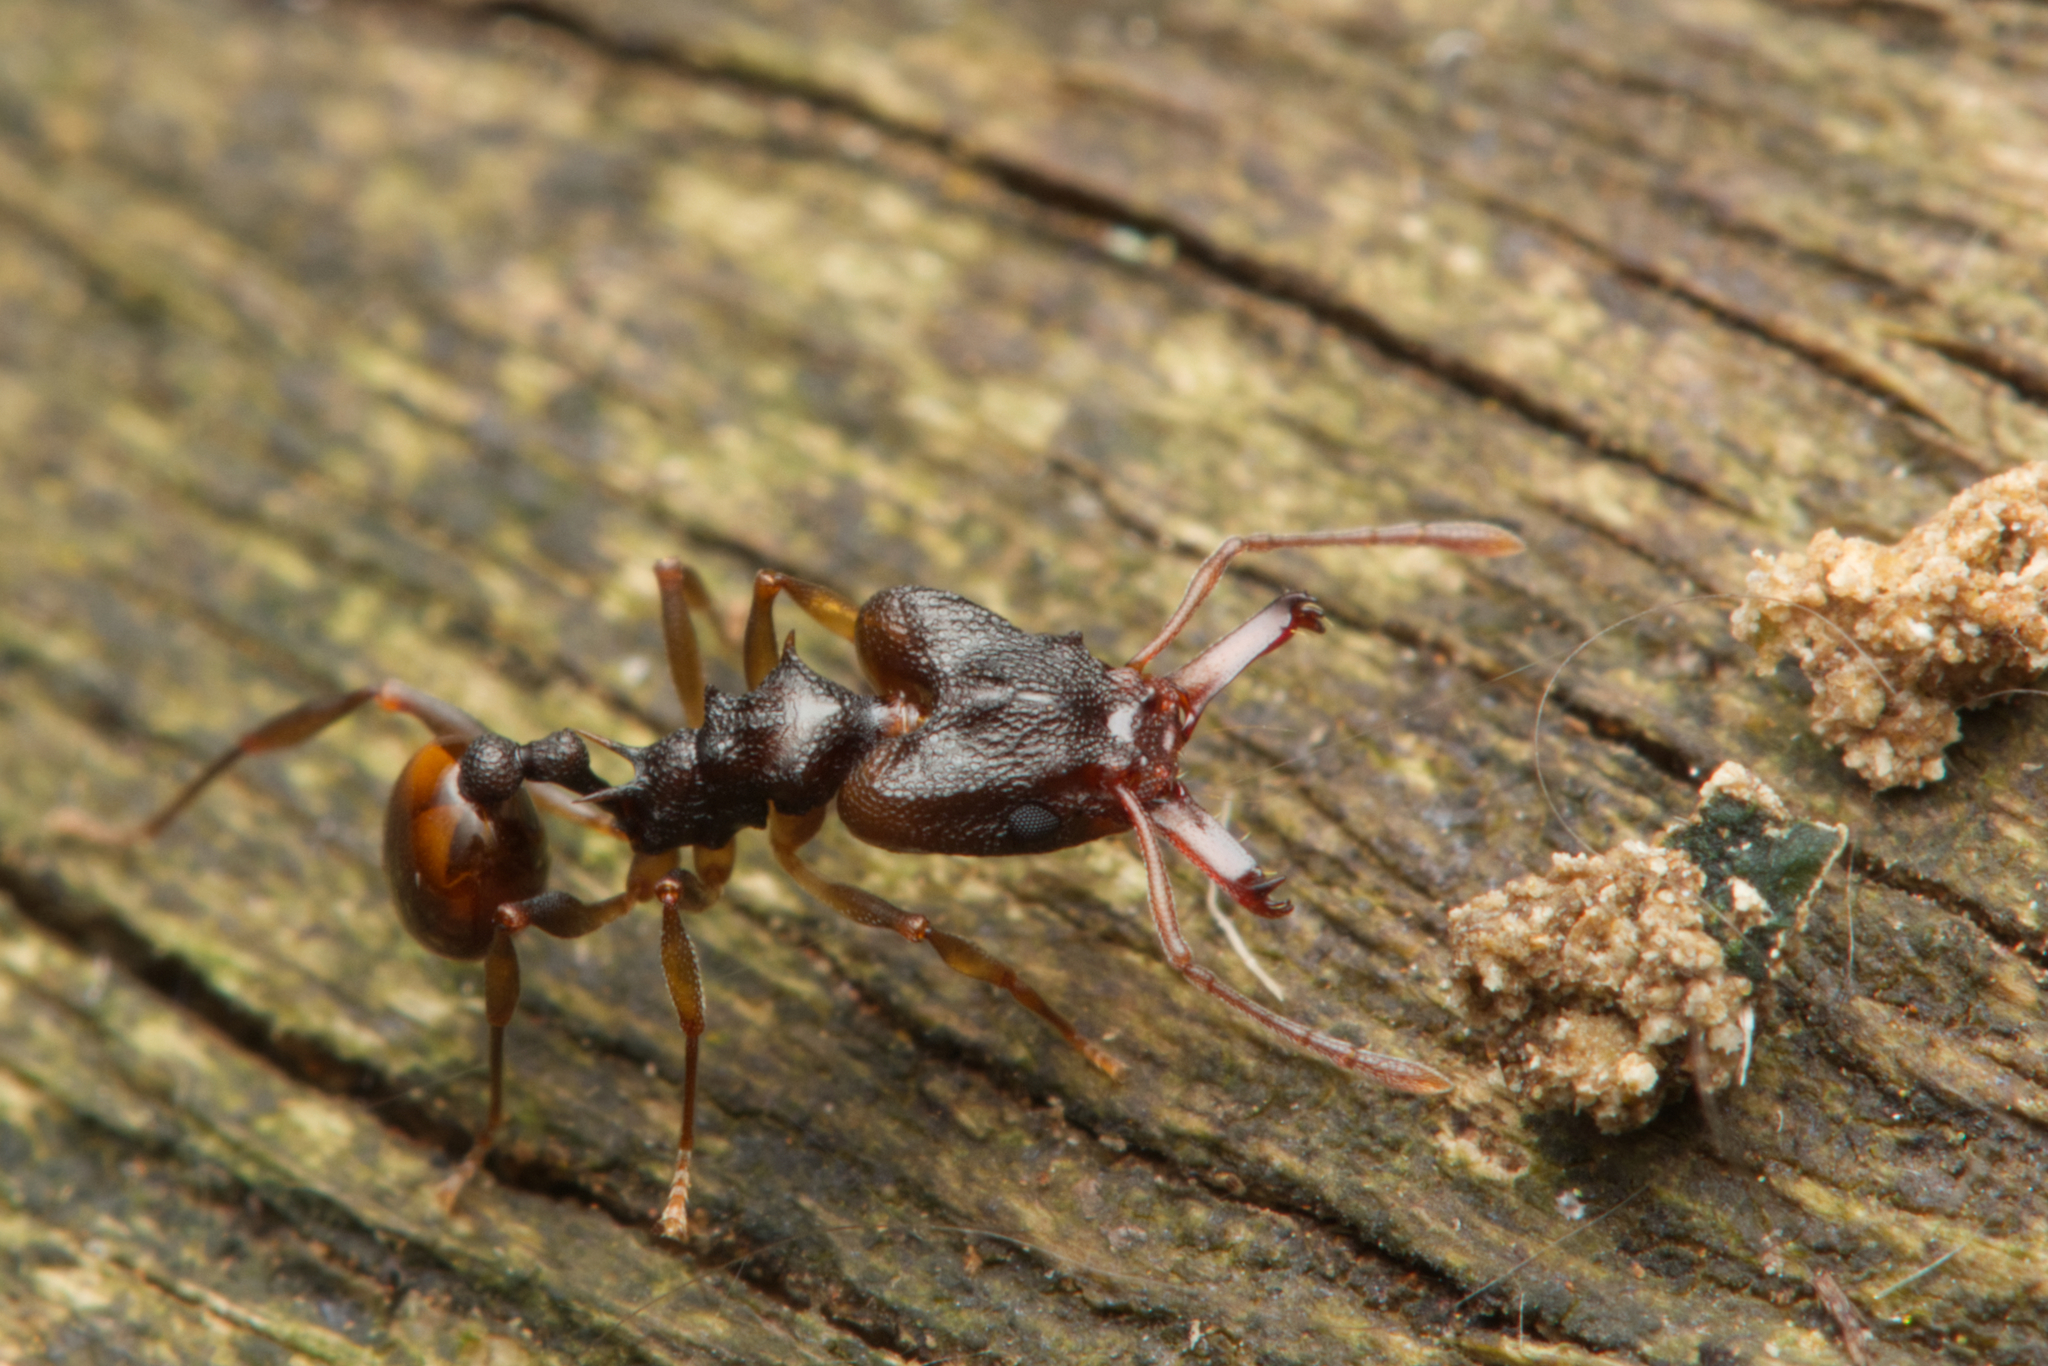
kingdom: Animalia
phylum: Arthropoda
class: Insecta
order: Hymenoptera
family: Formicidae
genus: Orectognathus
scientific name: Orectognathus versicolor
